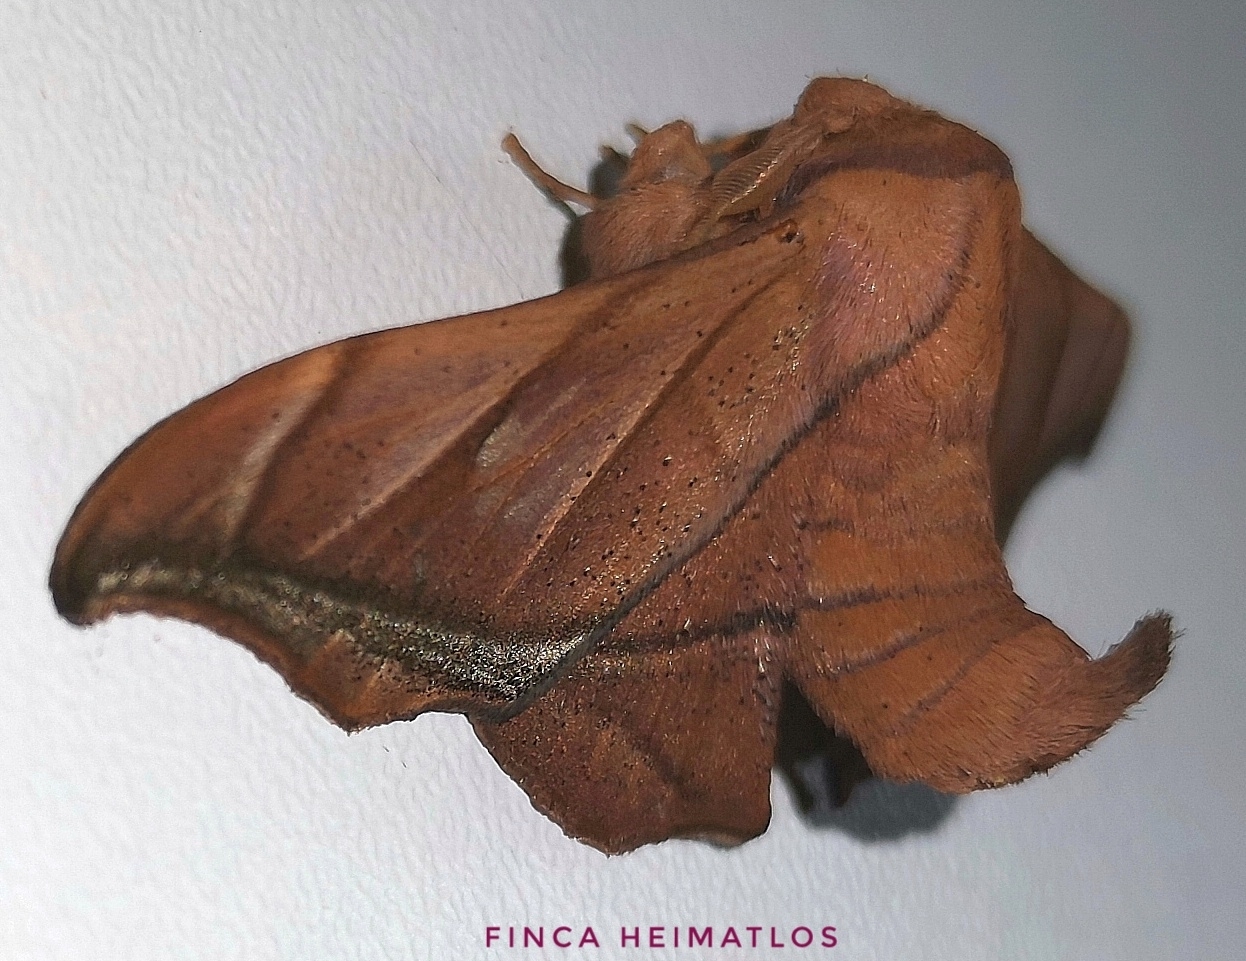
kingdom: Animalia
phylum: Arthropoda
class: Insecta
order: Lepidoptera
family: Mimallonidae
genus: Biterolfa
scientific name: Biterolfa rana
